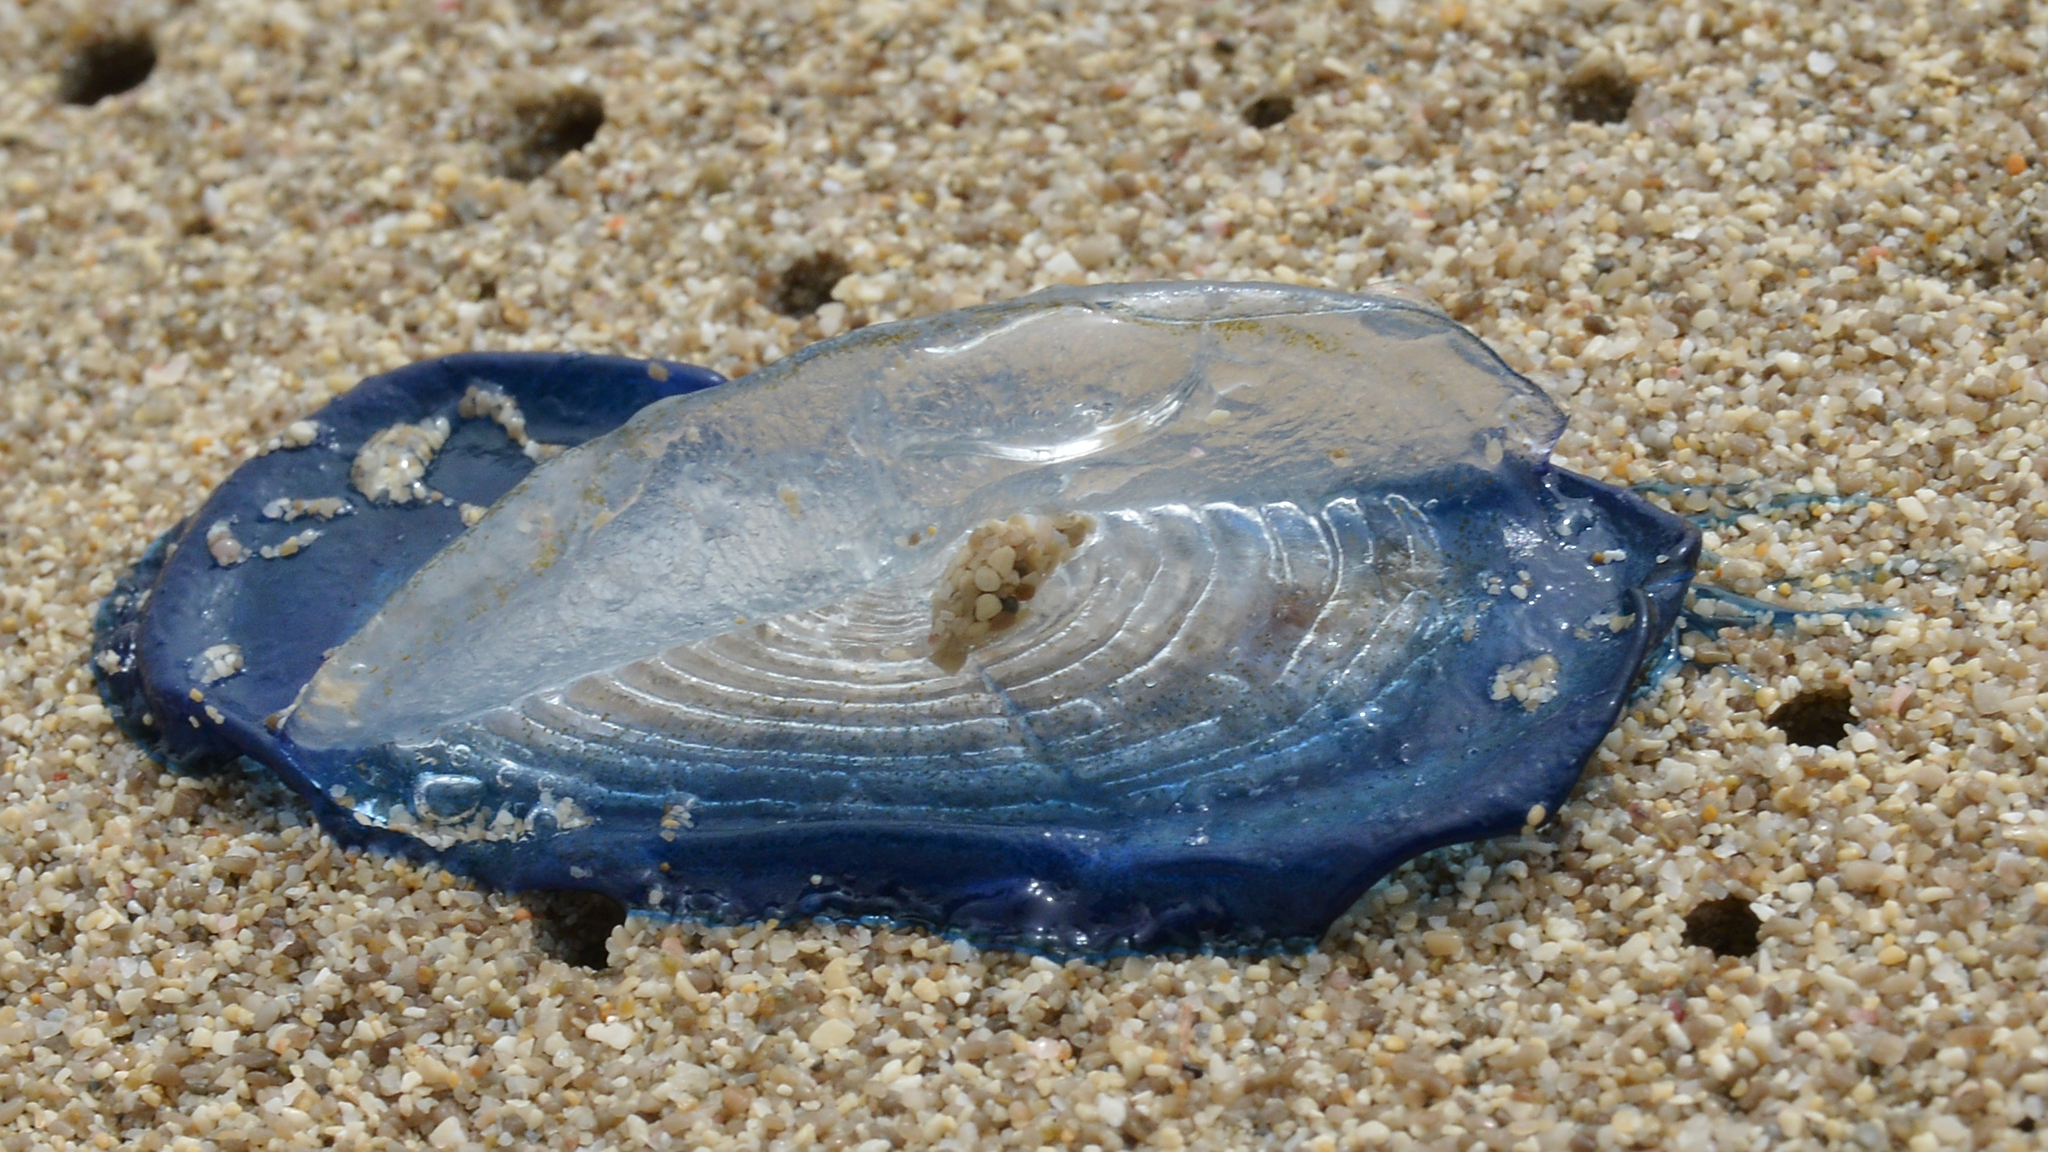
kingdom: Animalia
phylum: Cnidaria
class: Hydrozoa
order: Anthoathecata
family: Porpitidae
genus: Velella
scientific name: Velella velella
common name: By-the-wind-sailor
